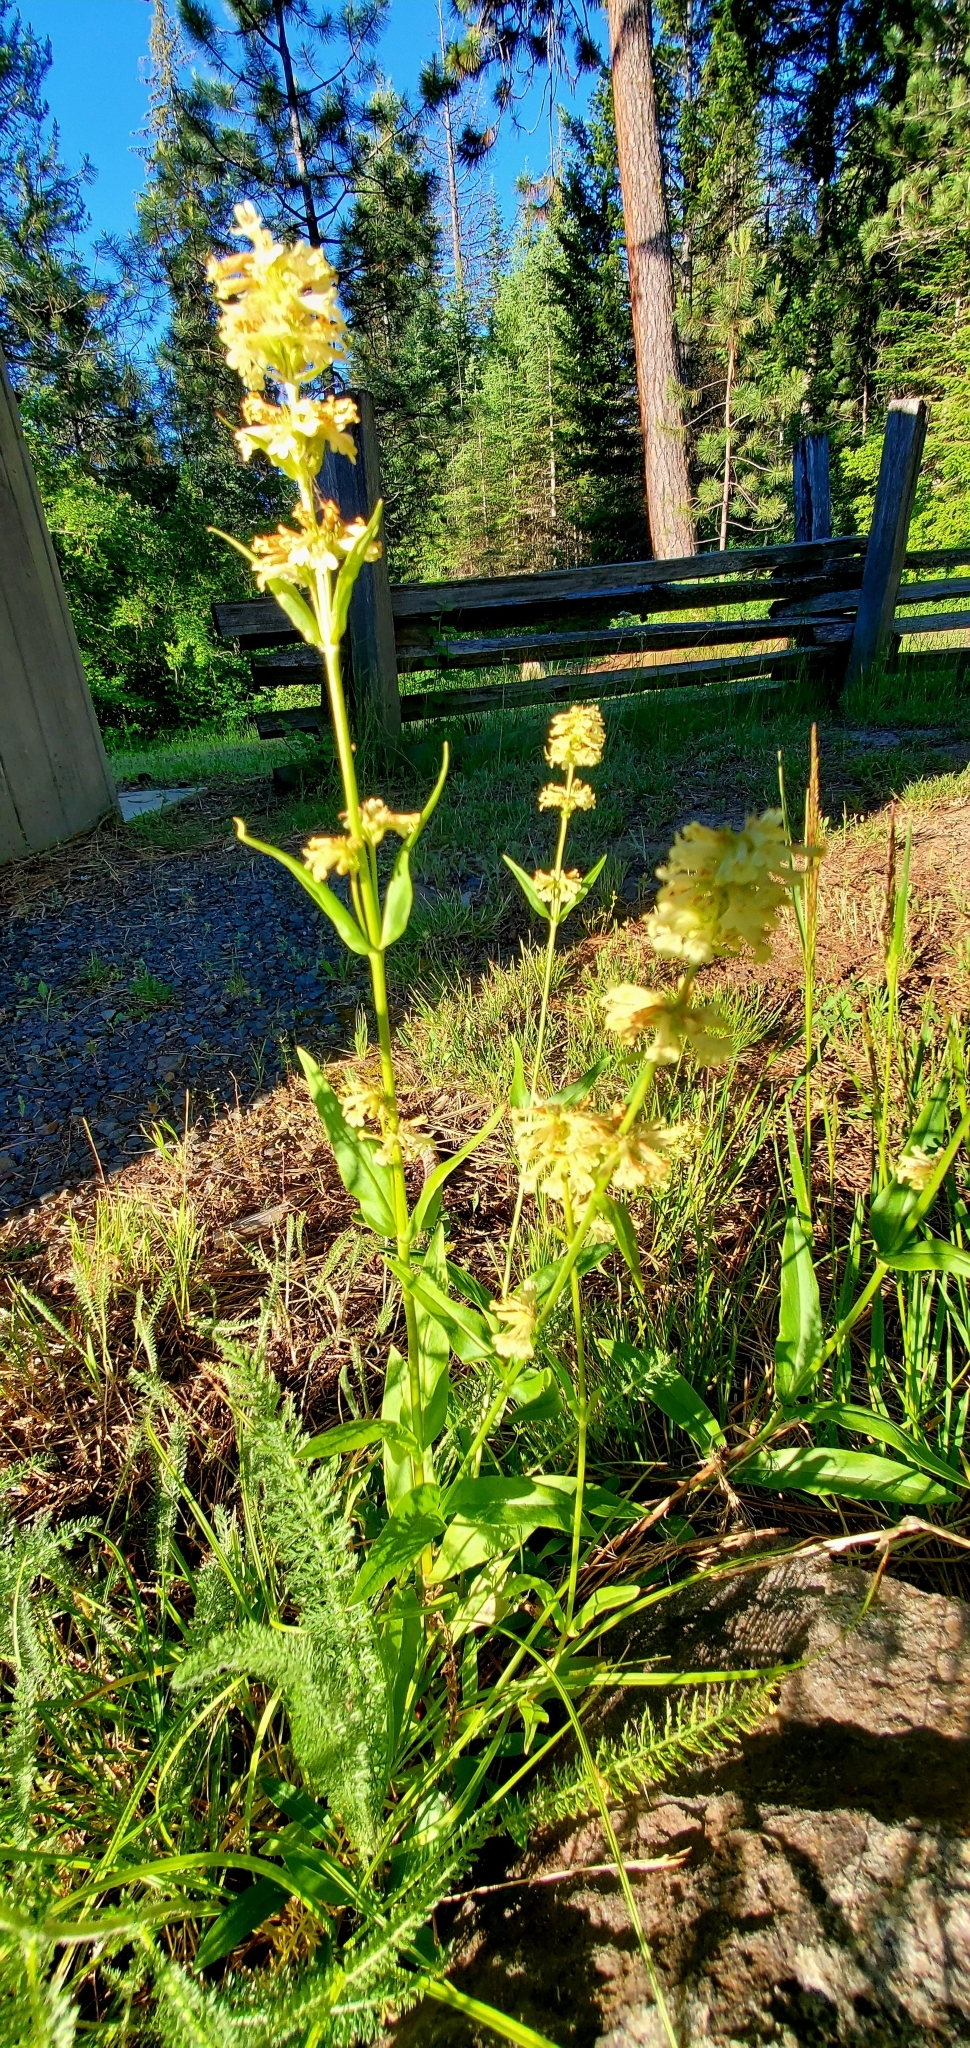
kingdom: Plantae
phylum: Tracheophyta
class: Magnoliopsida
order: Lamiales
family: Plantaginaceae
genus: Penstemon
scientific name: Penstemon confertus
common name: Lesser yellow beardtongue
